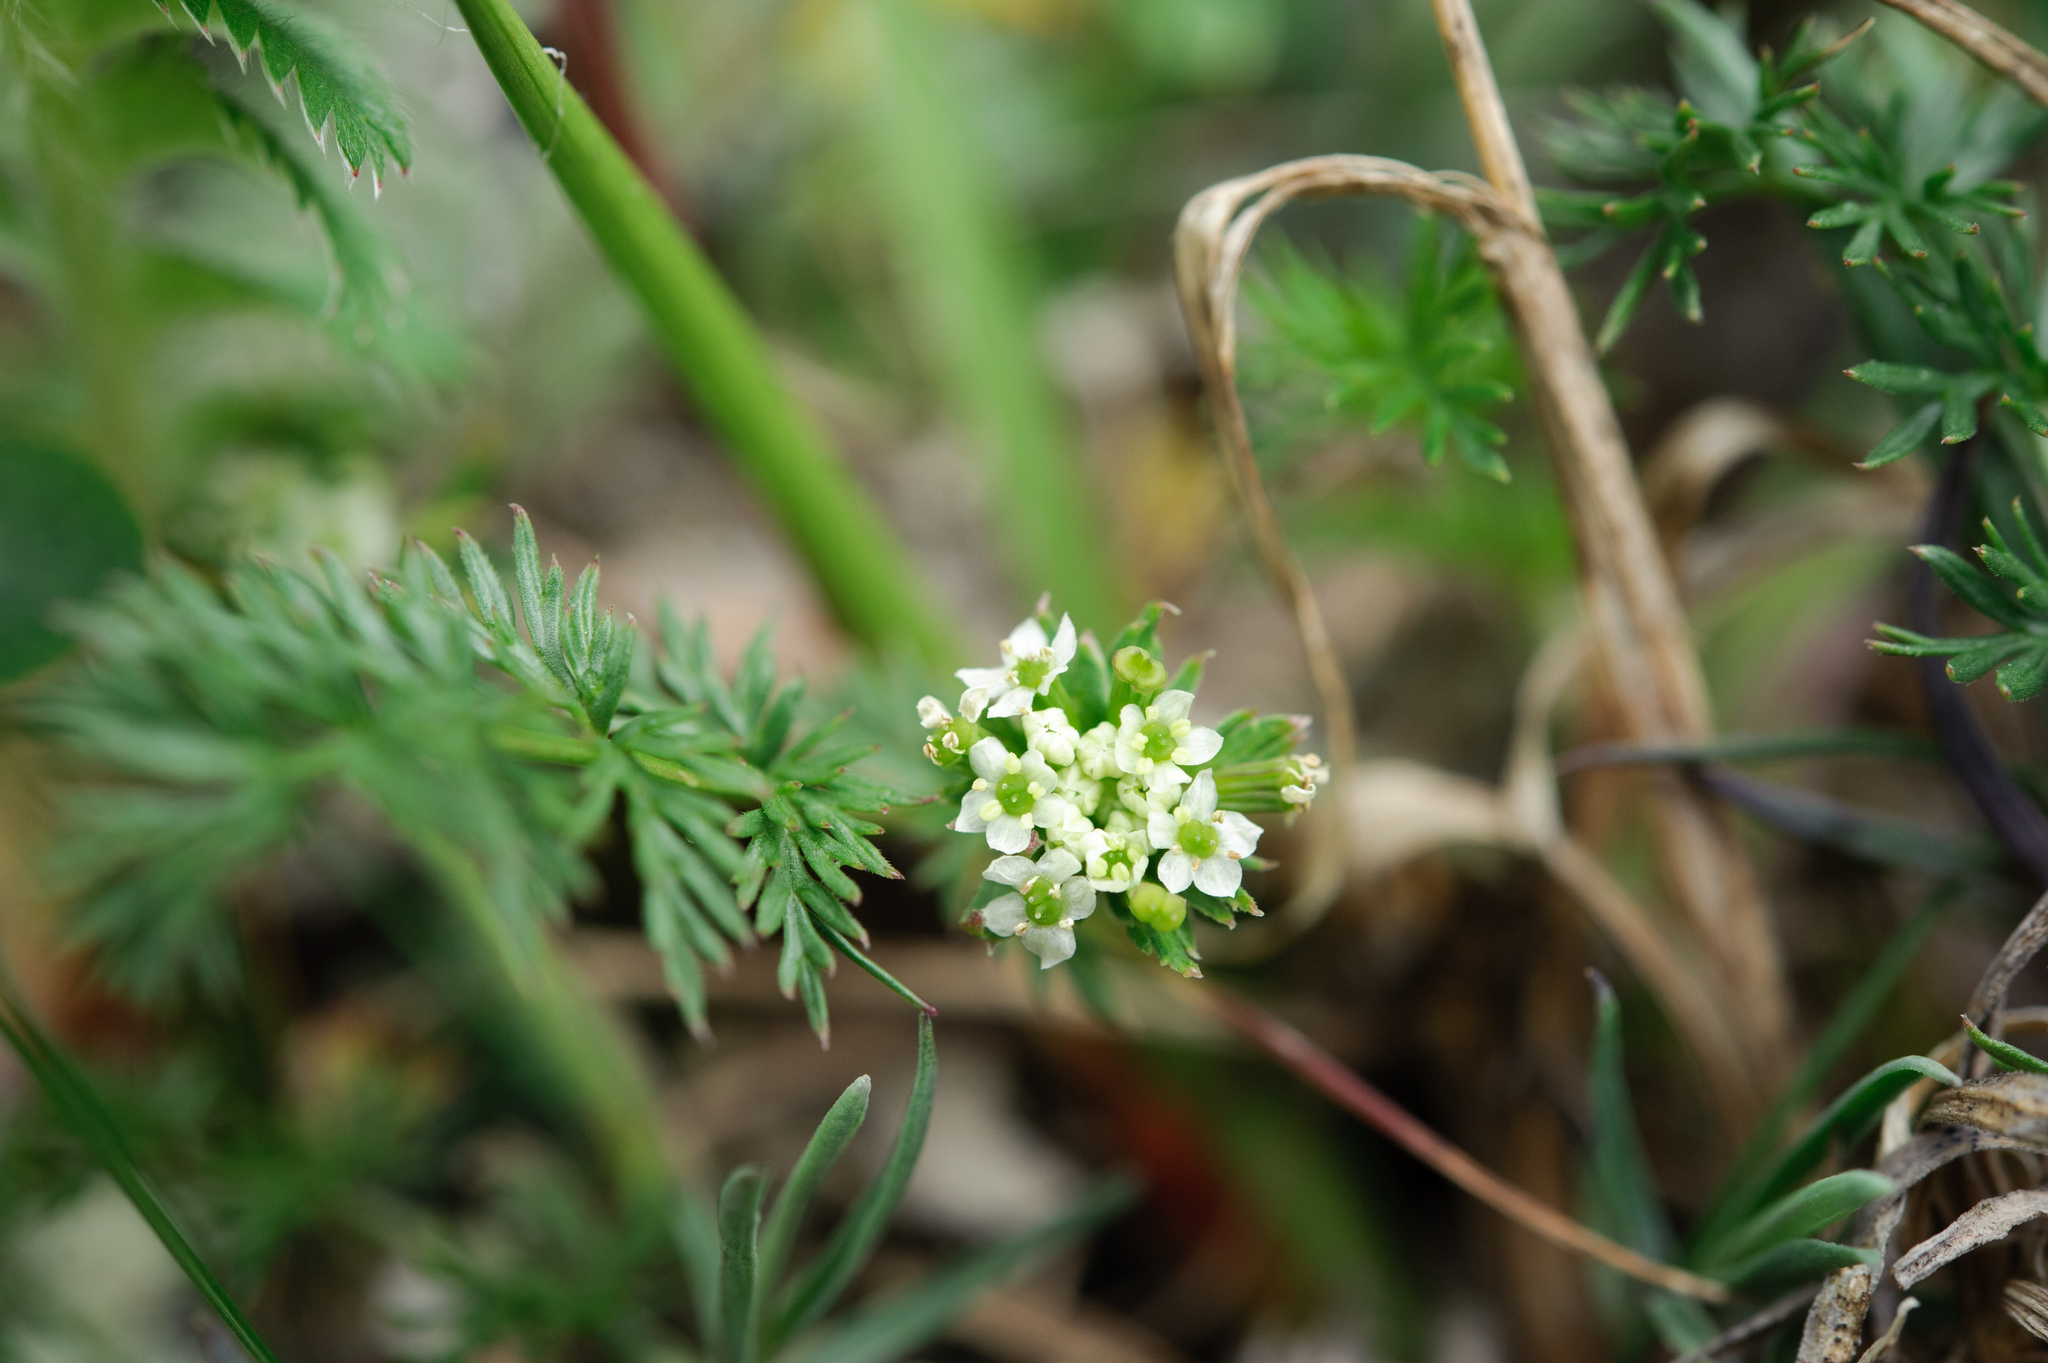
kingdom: Plantae
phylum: Tracheophyta
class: Magnoliopsida
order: Apiales
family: Apiaceae
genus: Chaerophyllum
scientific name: Chaerophyllum nanhuense
